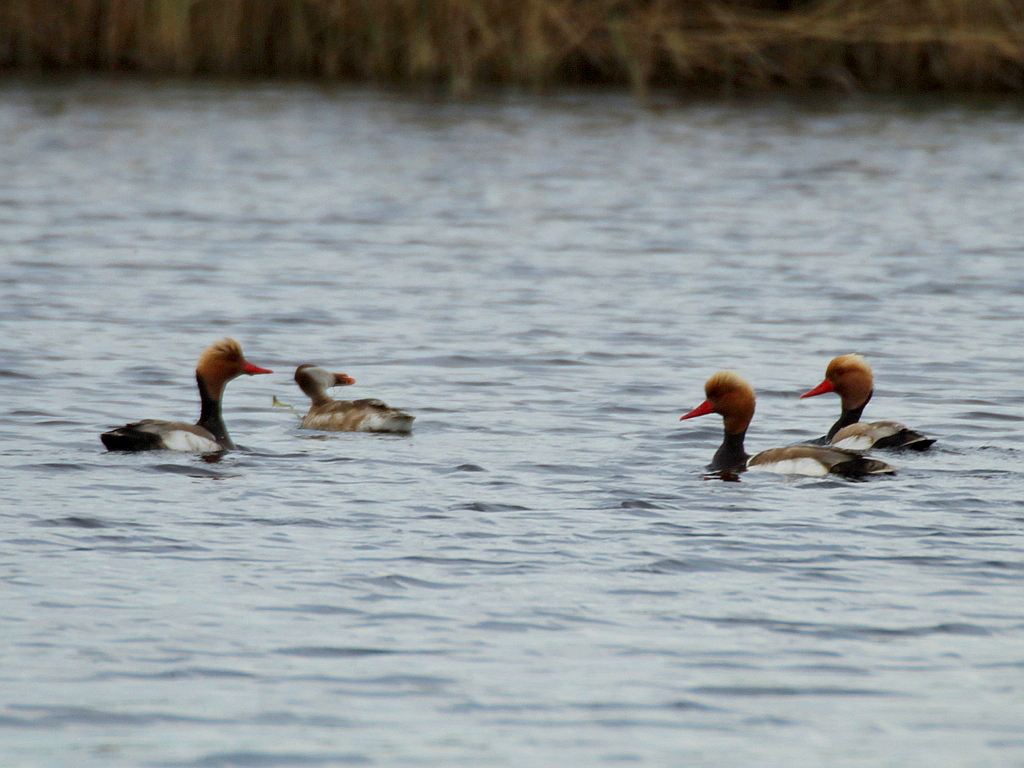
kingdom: Animalia
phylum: Chordata
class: Aves
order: Anseriformes
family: Anatidae
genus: Netta
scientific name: Netta rufina
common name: Red-crested pochard
